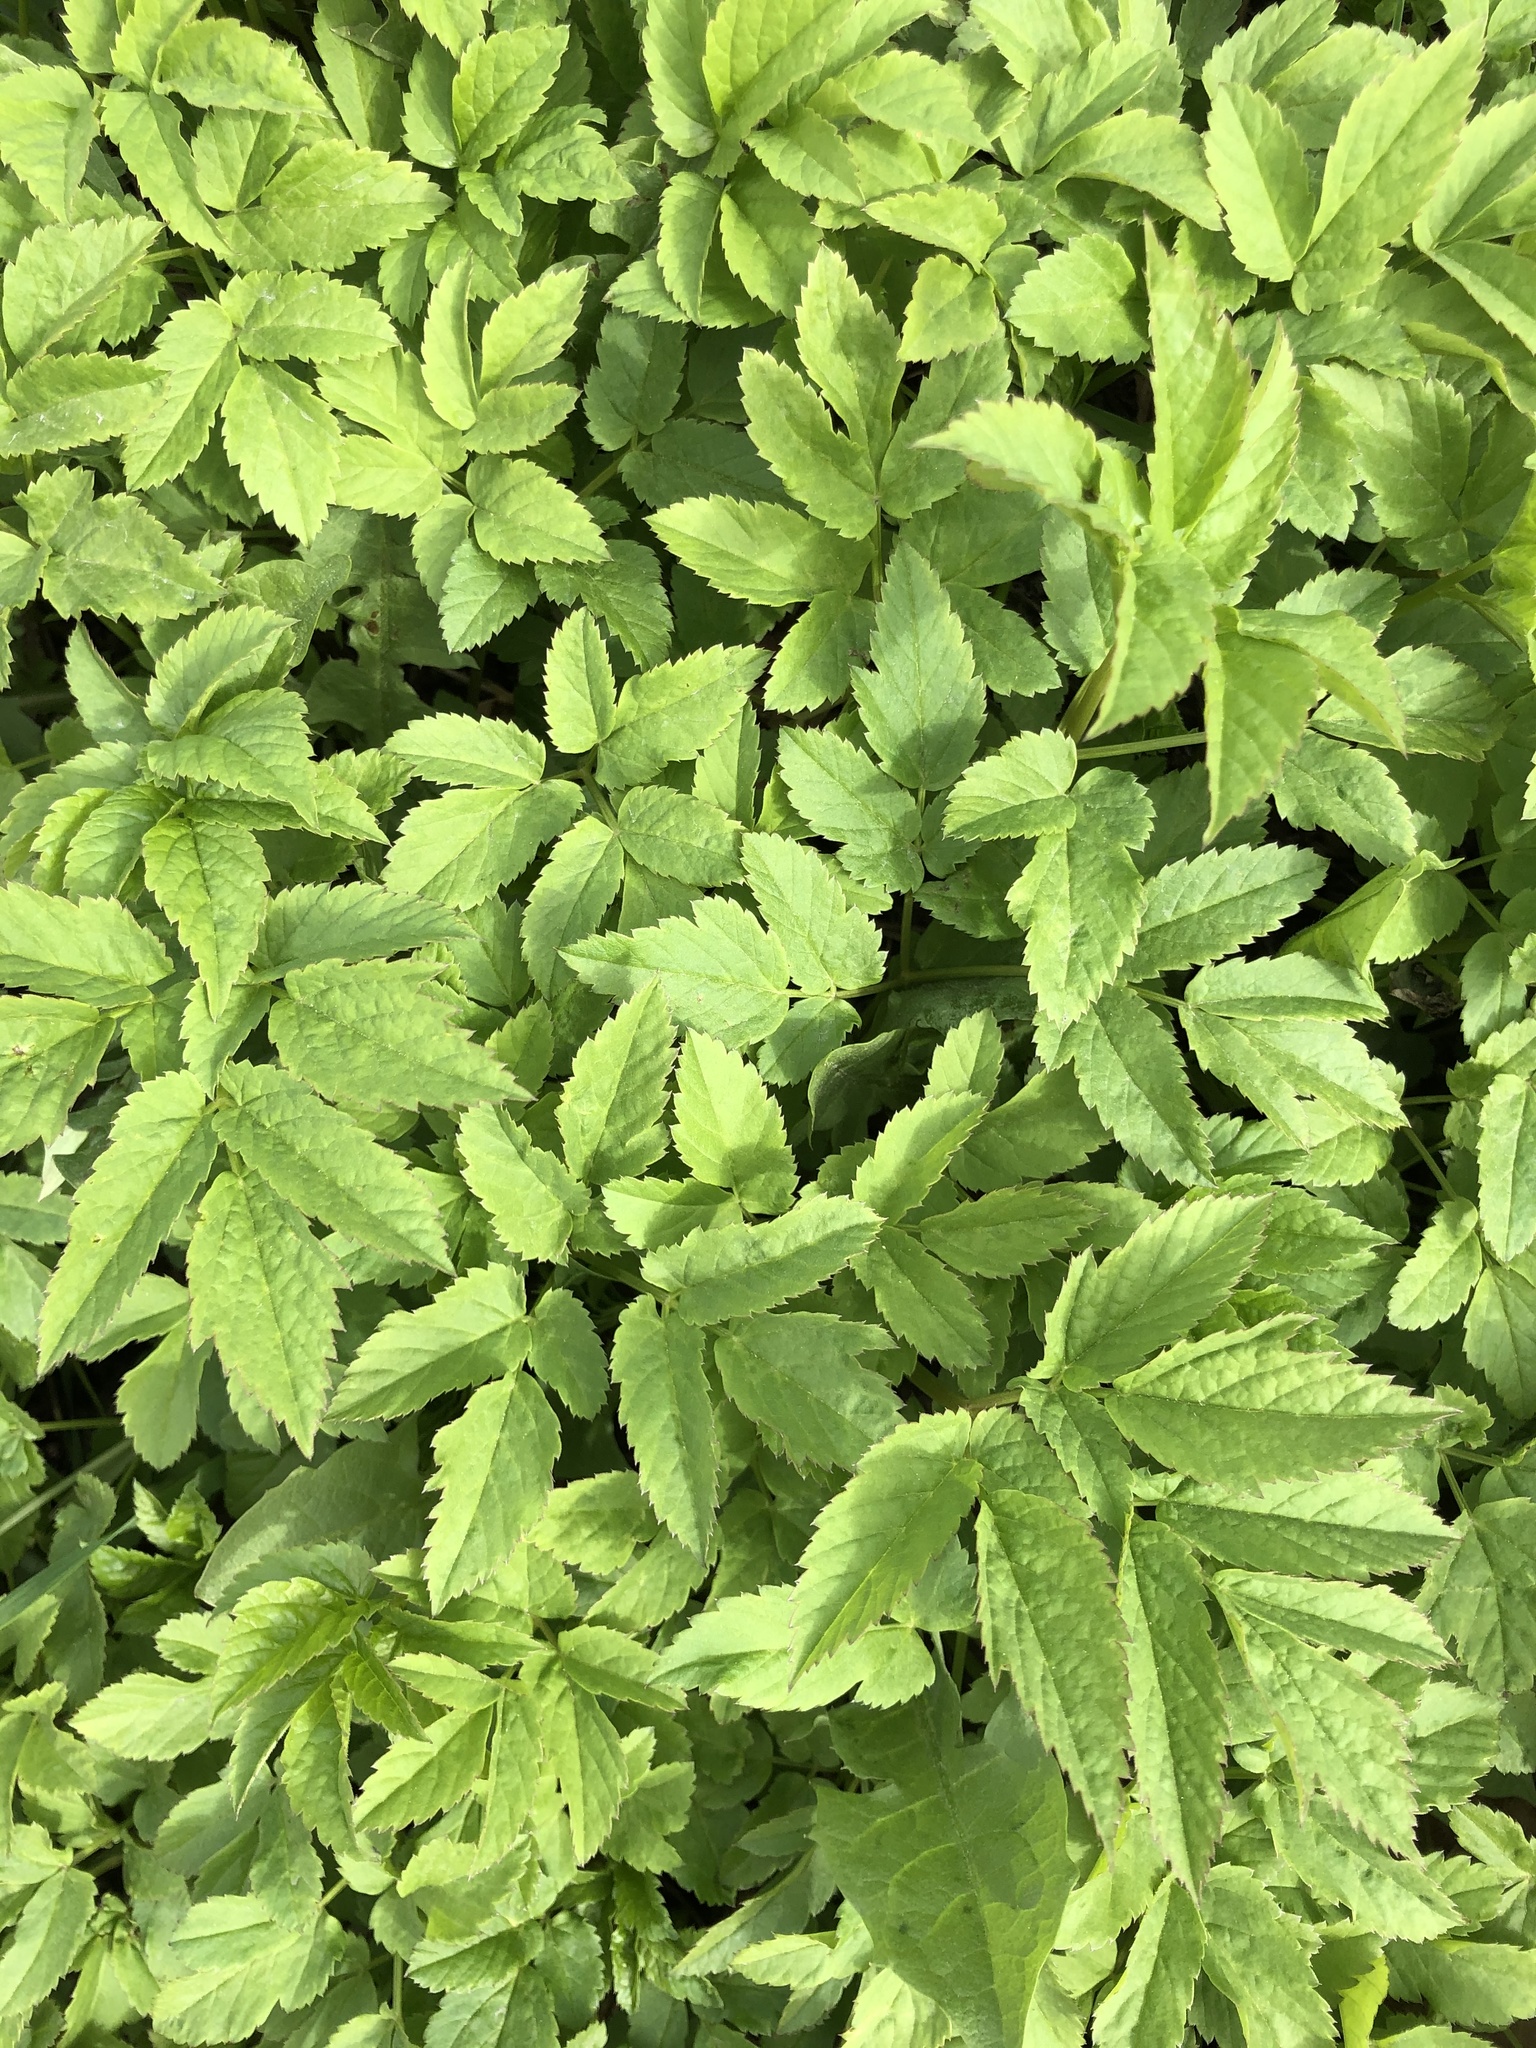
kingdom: Plantae
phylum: Tracheophyta
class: Magnoliopsida
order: Apiales
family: Apiaceae
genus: Aegopodium
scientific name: Aegopodium podagraria
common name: Ground-elder
